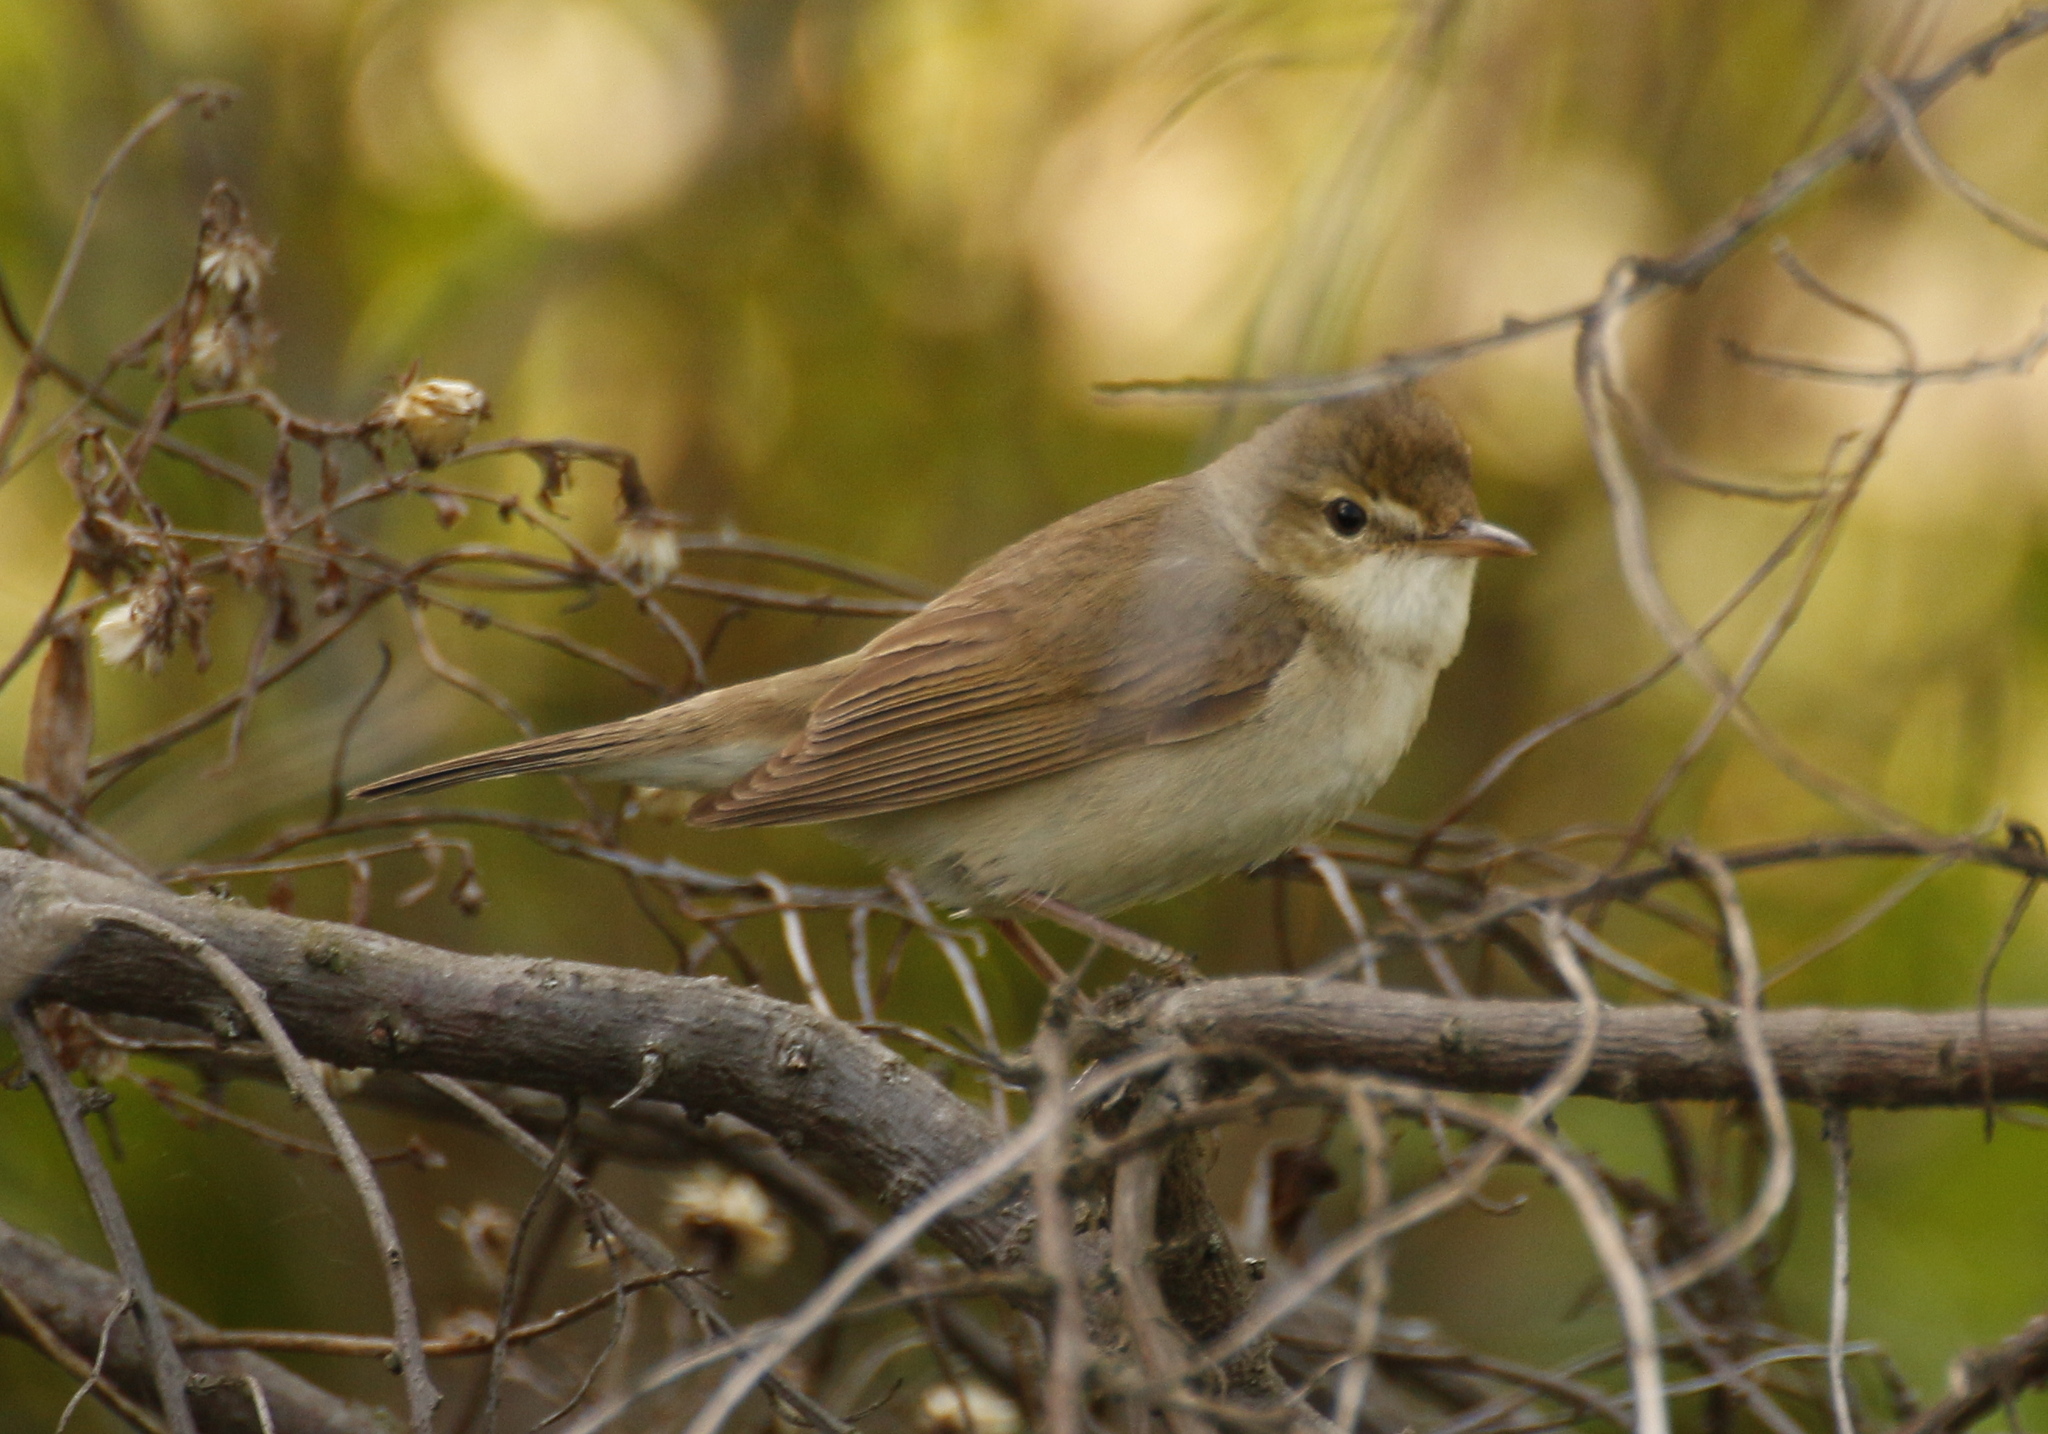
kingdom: Animalia
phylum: Chordata
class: Aves
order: Passeriformes
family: Acrocephalidae
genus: Acrocephalus
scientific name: Acrocephalus dumetorum
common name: Blyth's reed warbler
